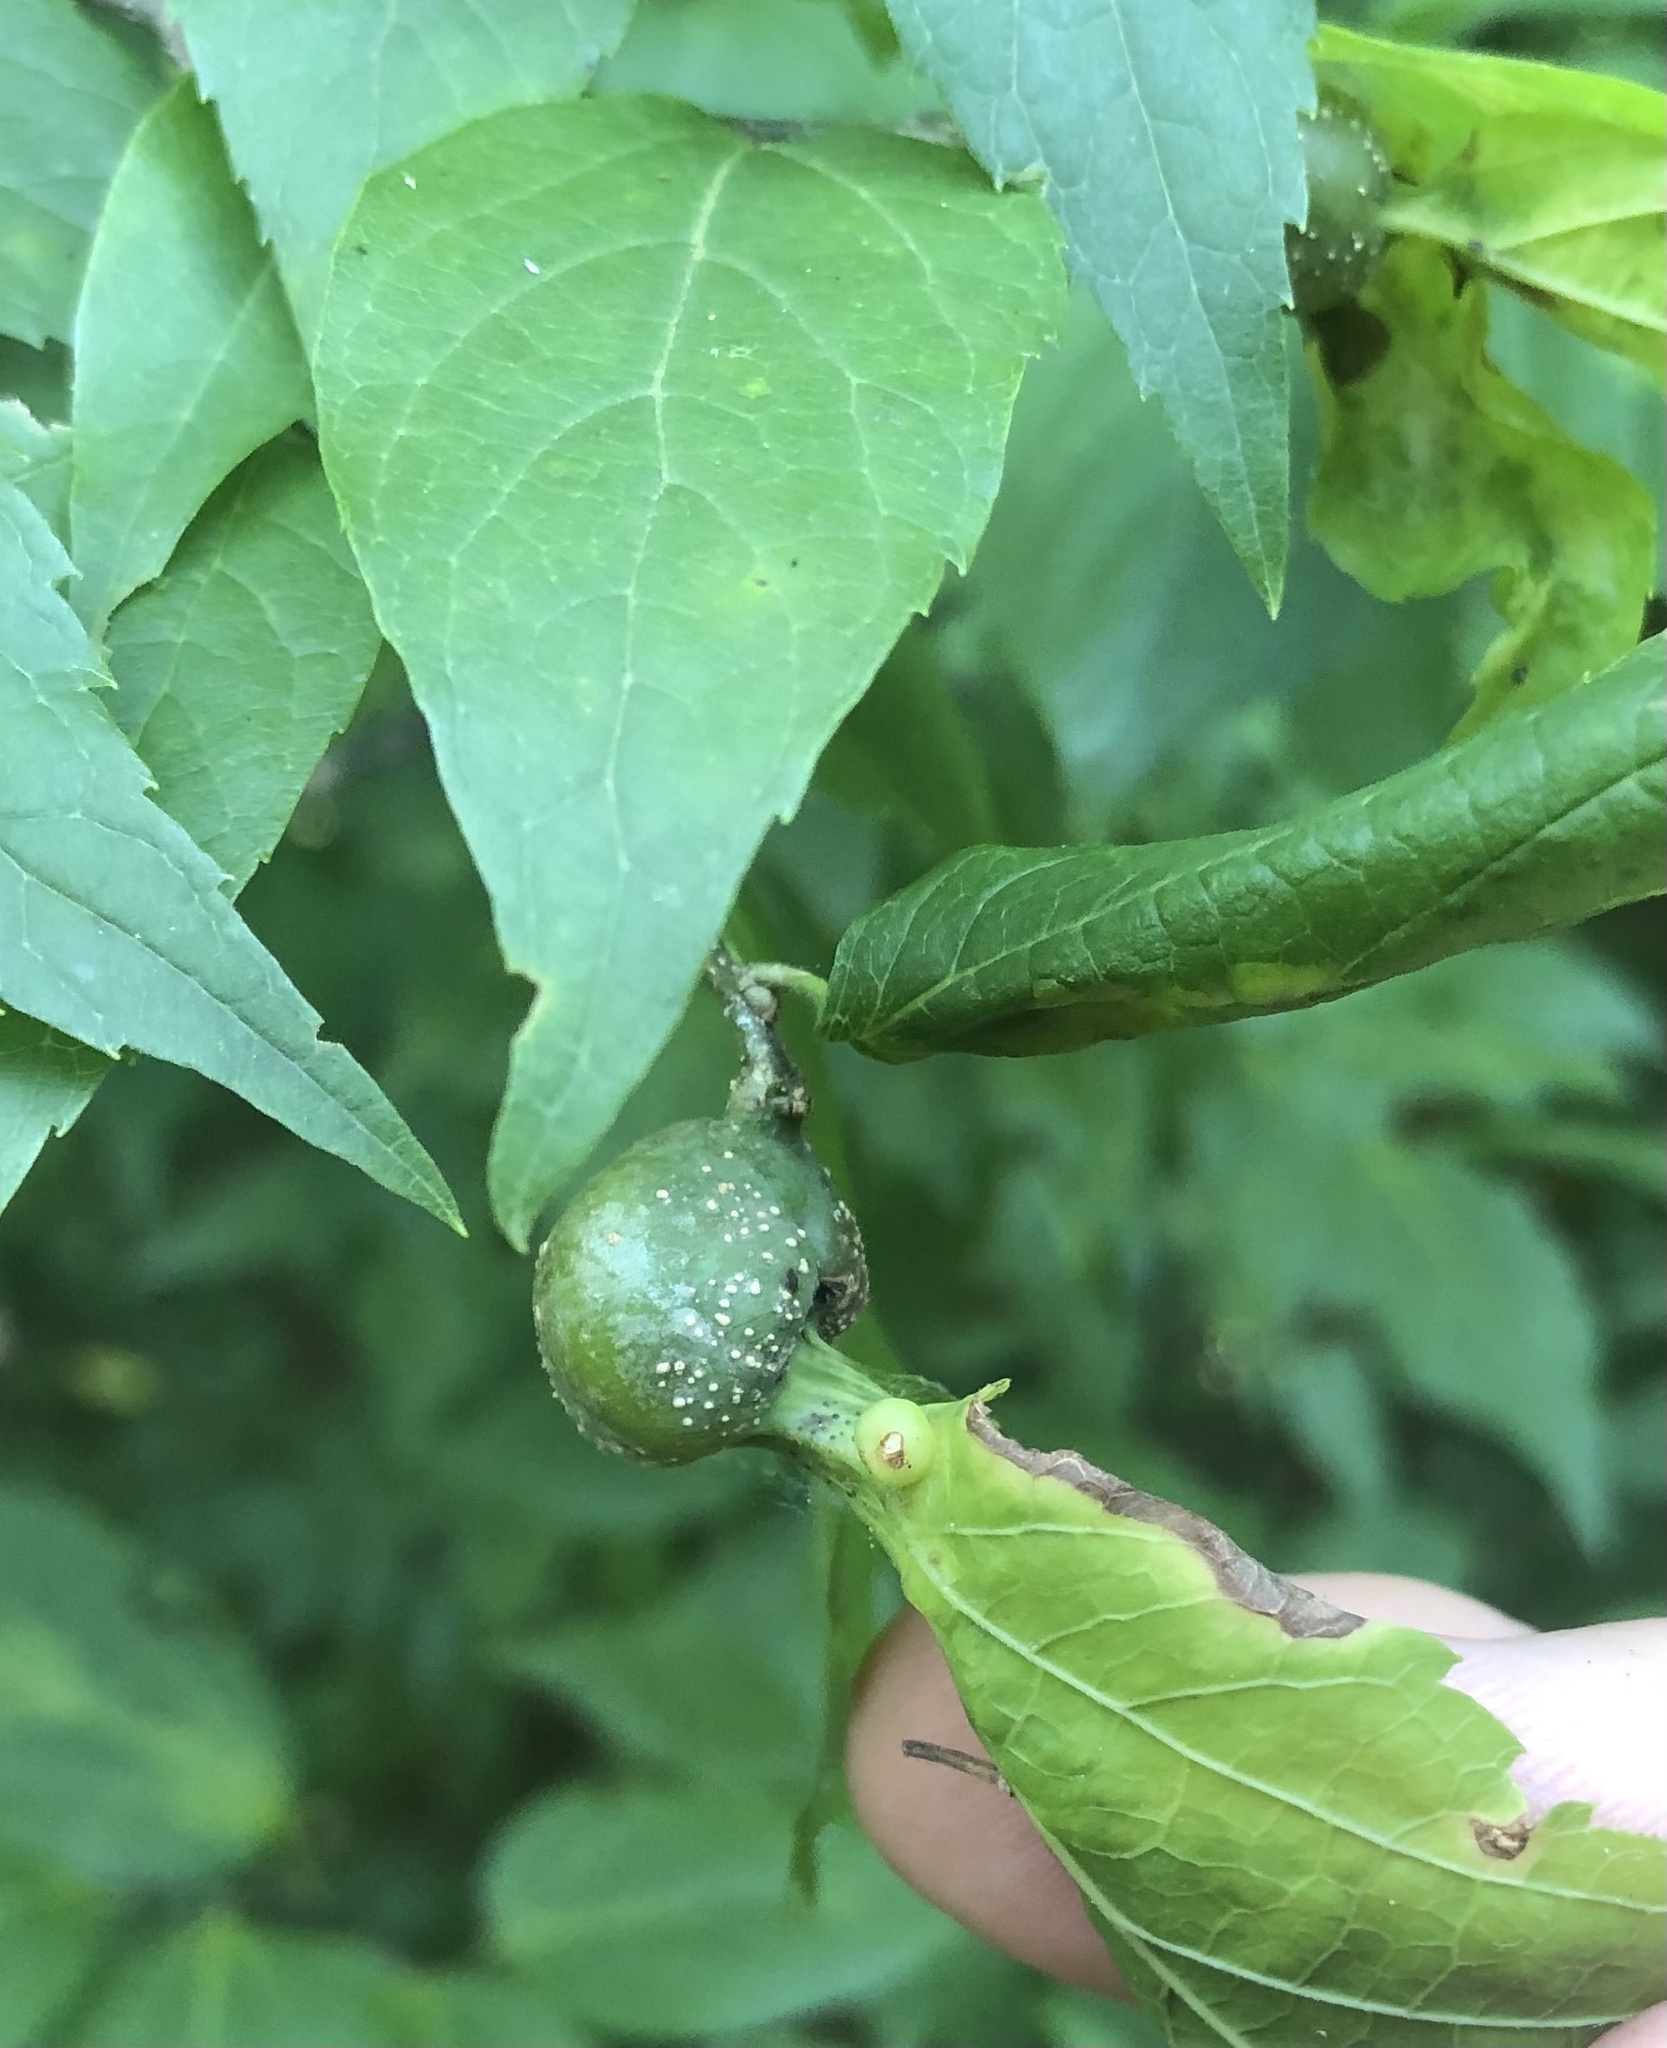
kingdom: Animalia
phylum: Arthropoda
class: Insecta
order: Hemiptera
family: Aphalaridae
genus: Pachypsylla
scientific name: Pachypsylla venusta
